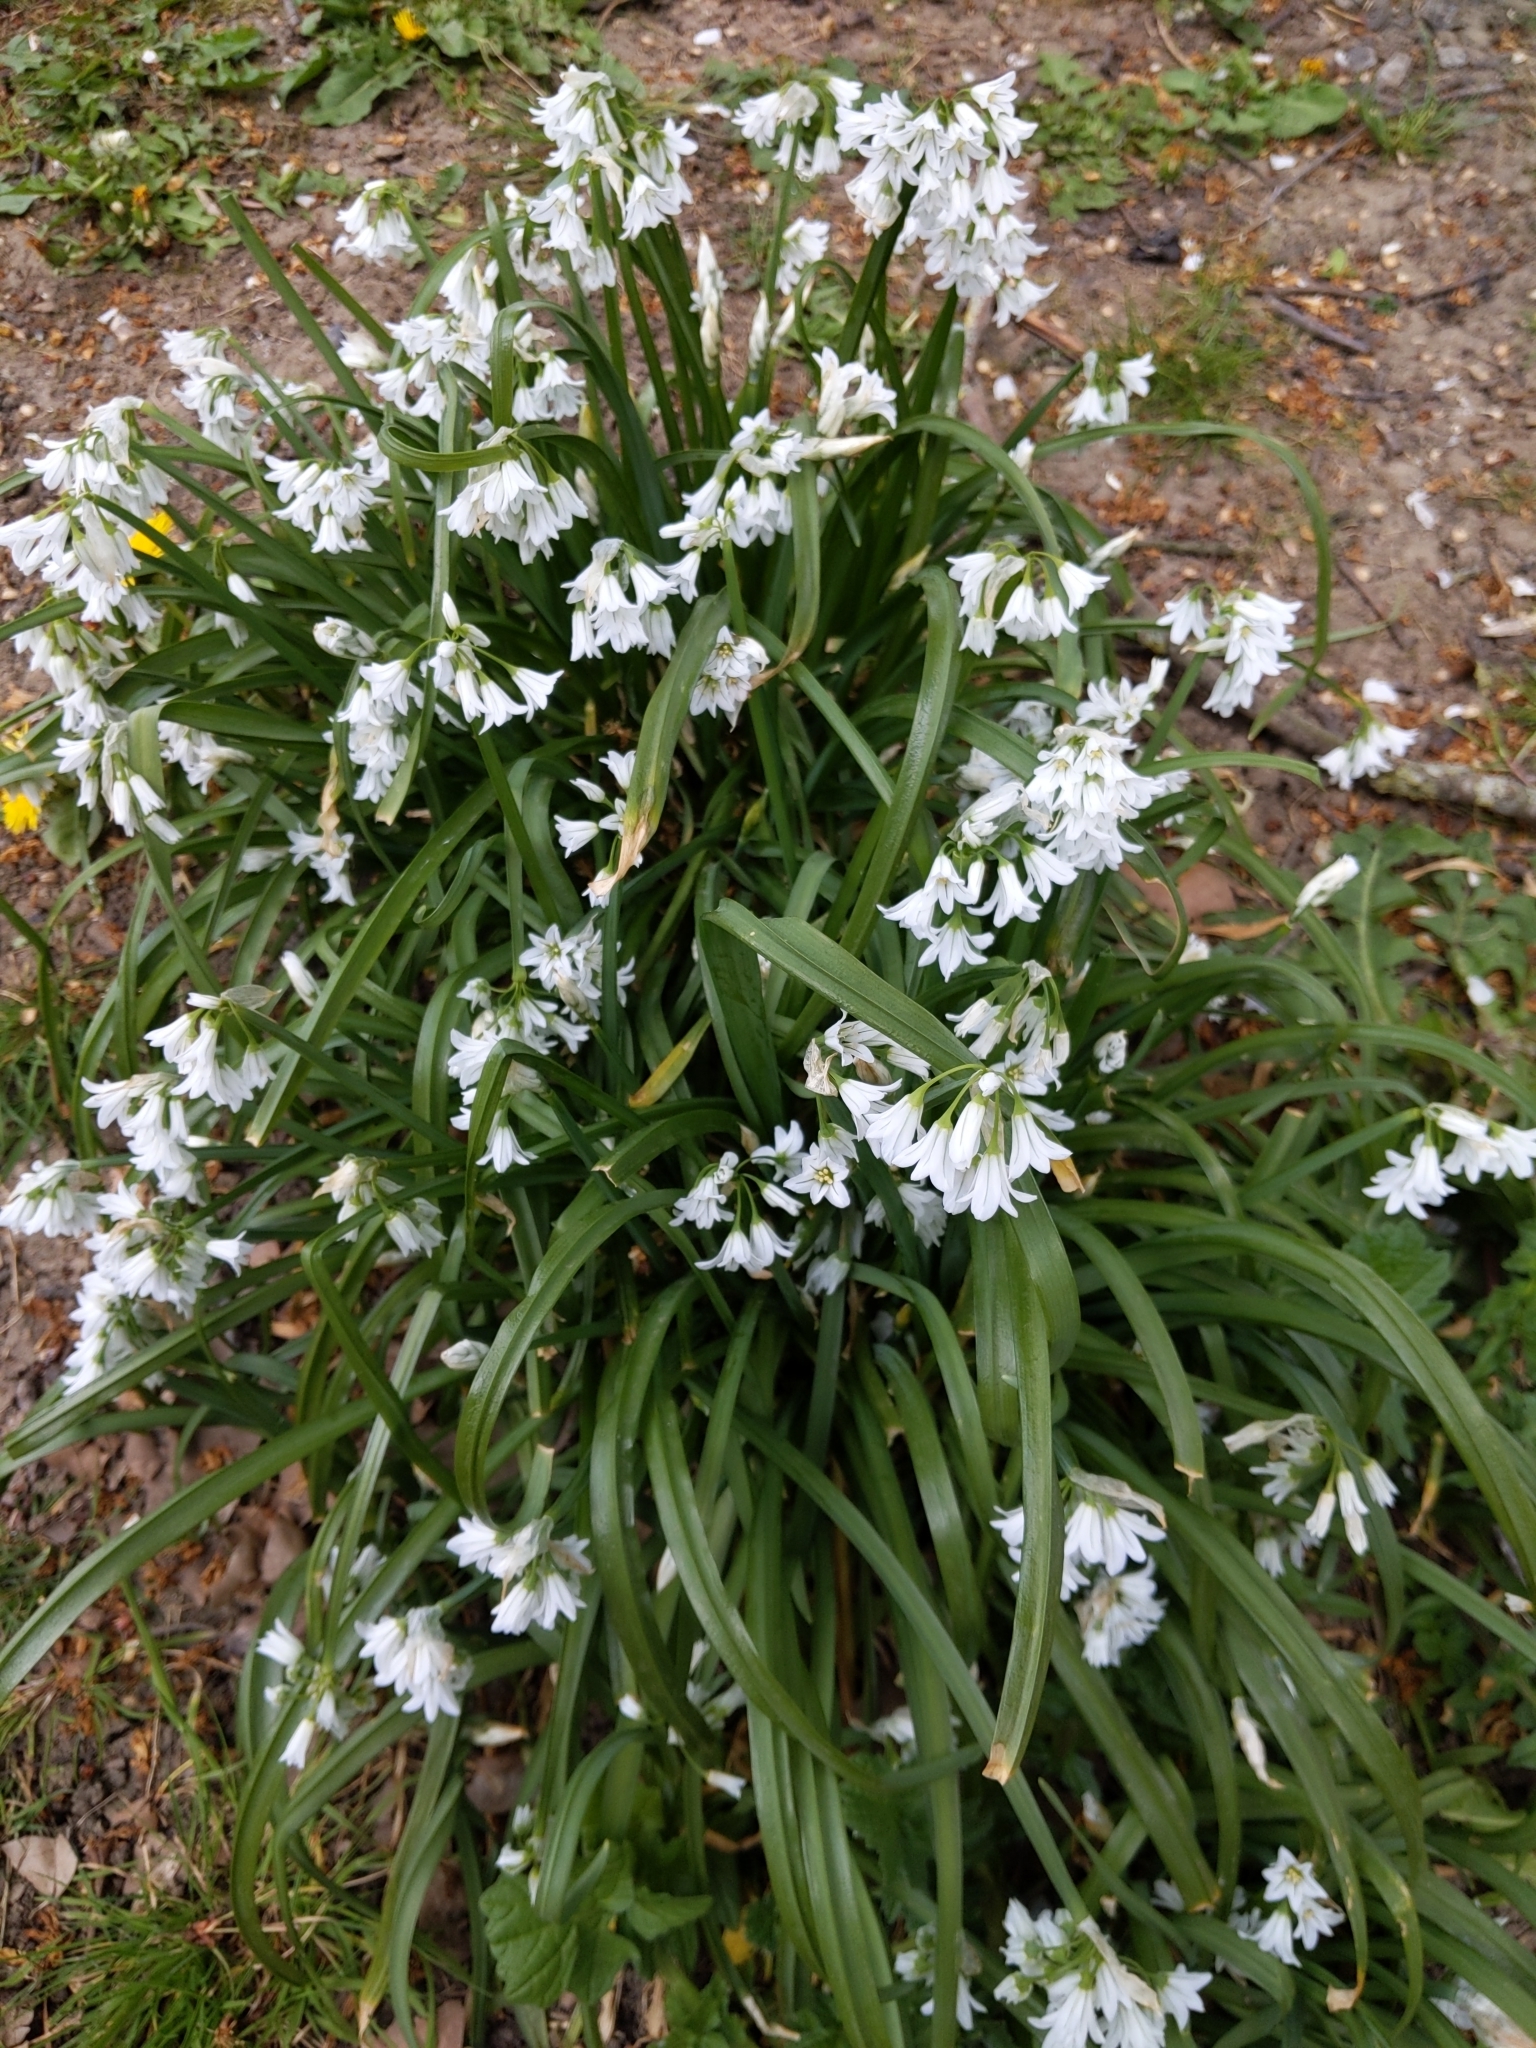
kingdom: Plantae
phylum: Tracheophyta
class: Liliopsida
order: Asparagales
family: Amaryllidaceae
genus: Allium
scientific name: Allium triquetrum
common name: Three-cornered garlic
